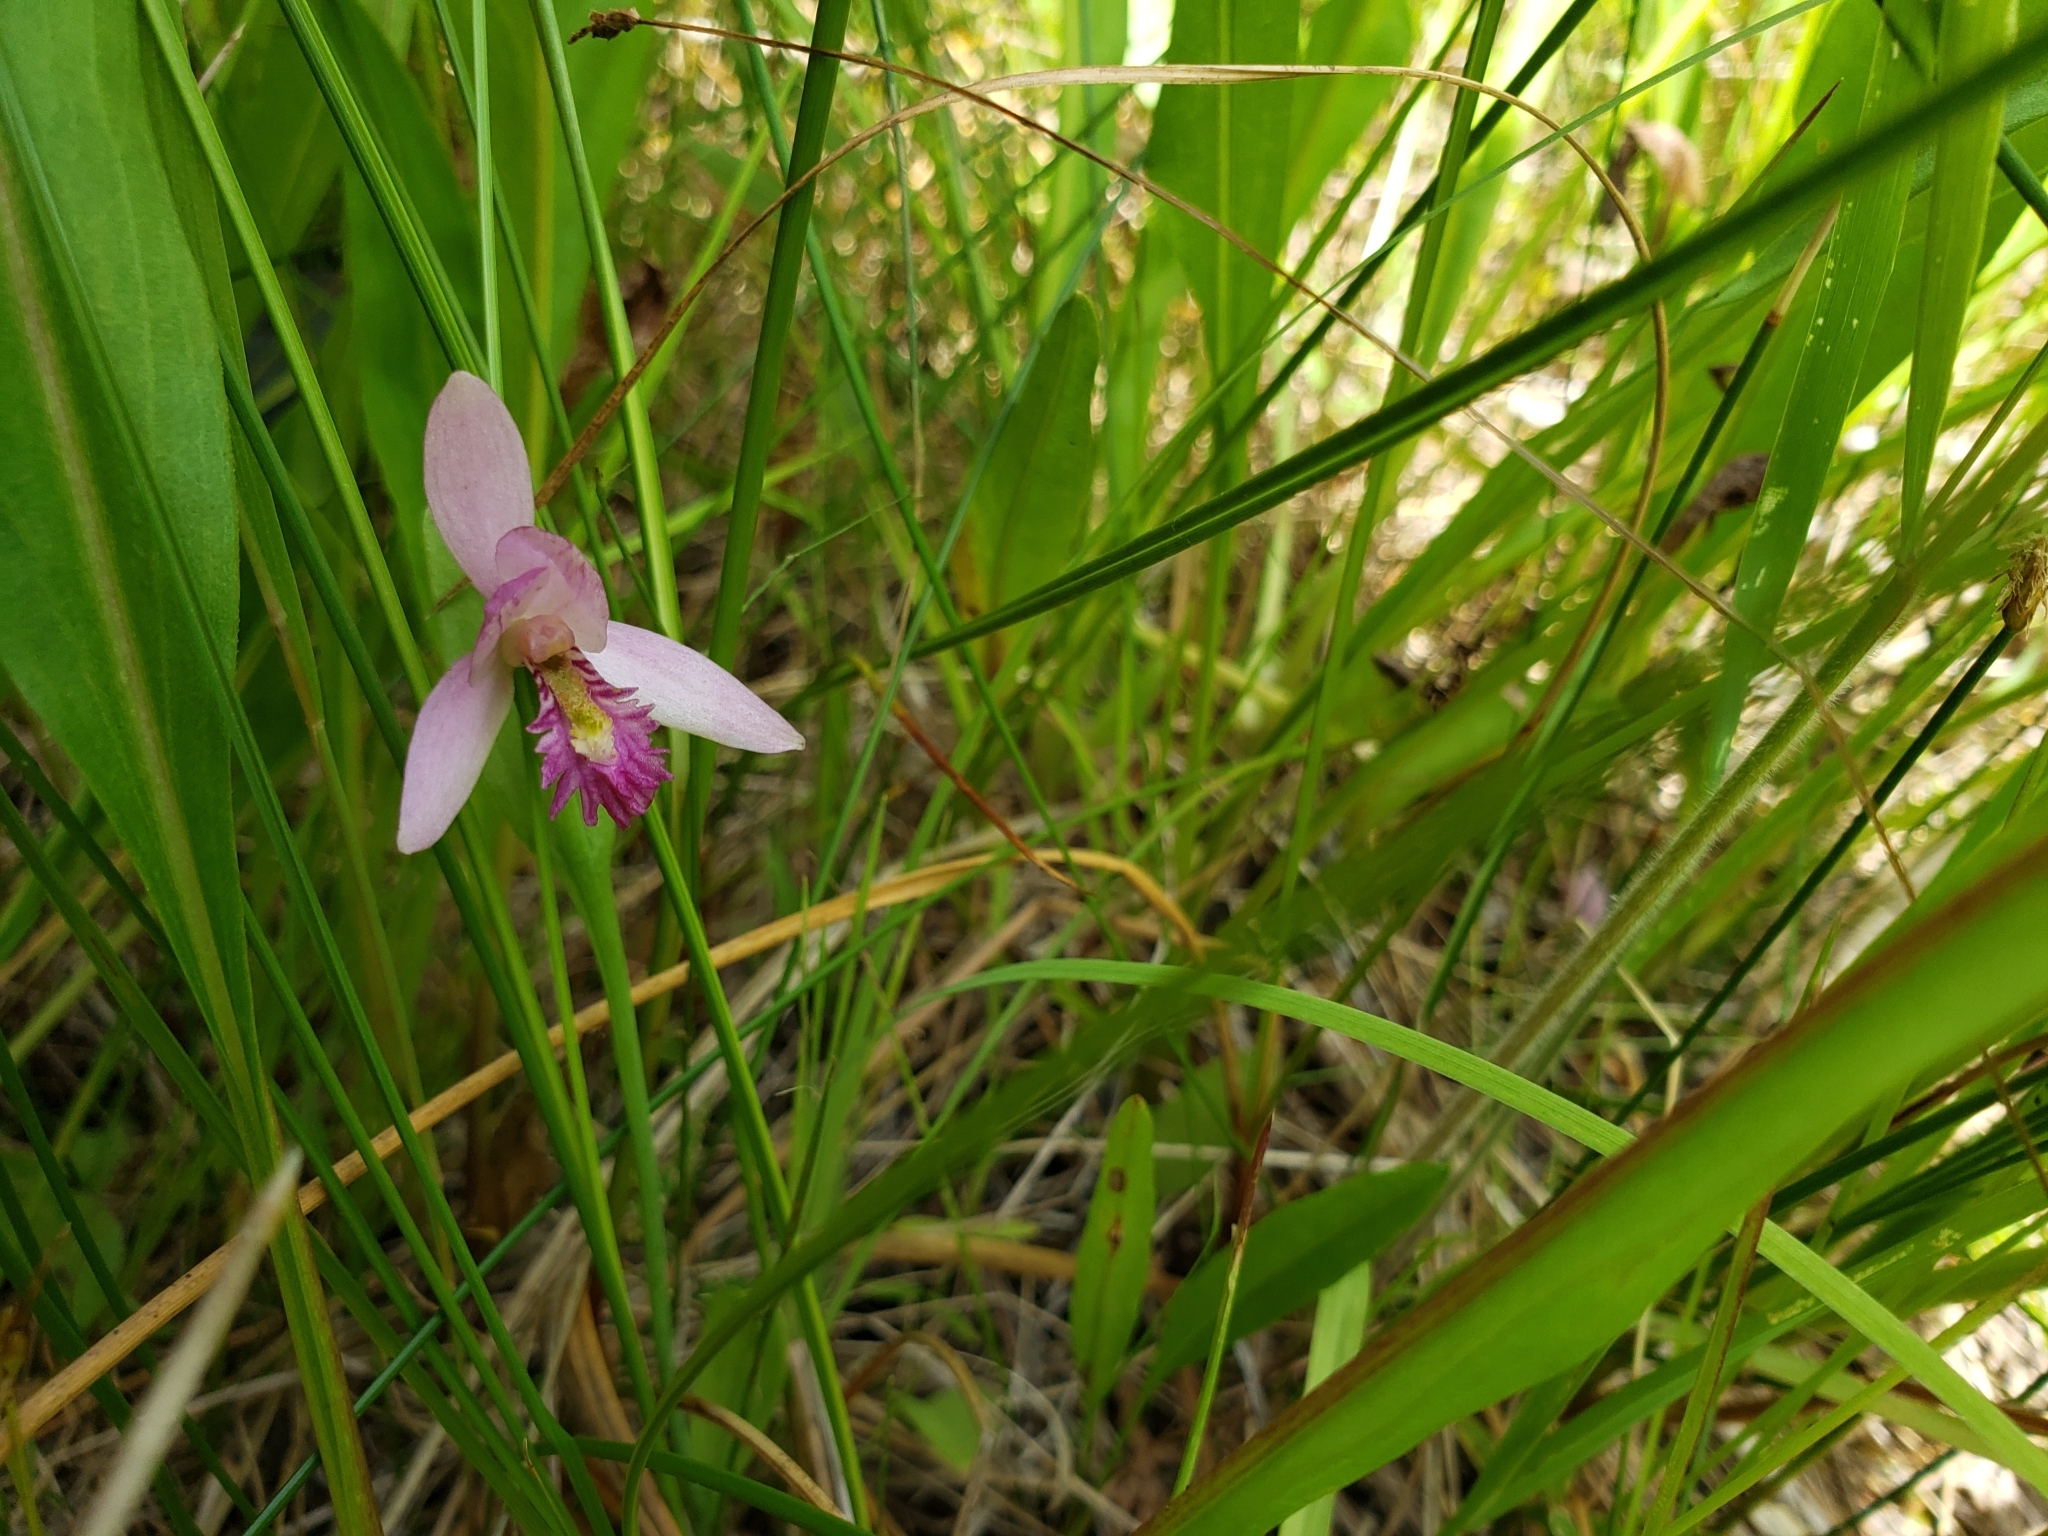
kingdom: Plantae
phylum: Tracheophyta
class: Liliopsida
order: Asparagales
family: Orchidaceae
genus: Pogonia
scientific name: Pogonia ophioglossoides
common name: Rose pogonia
